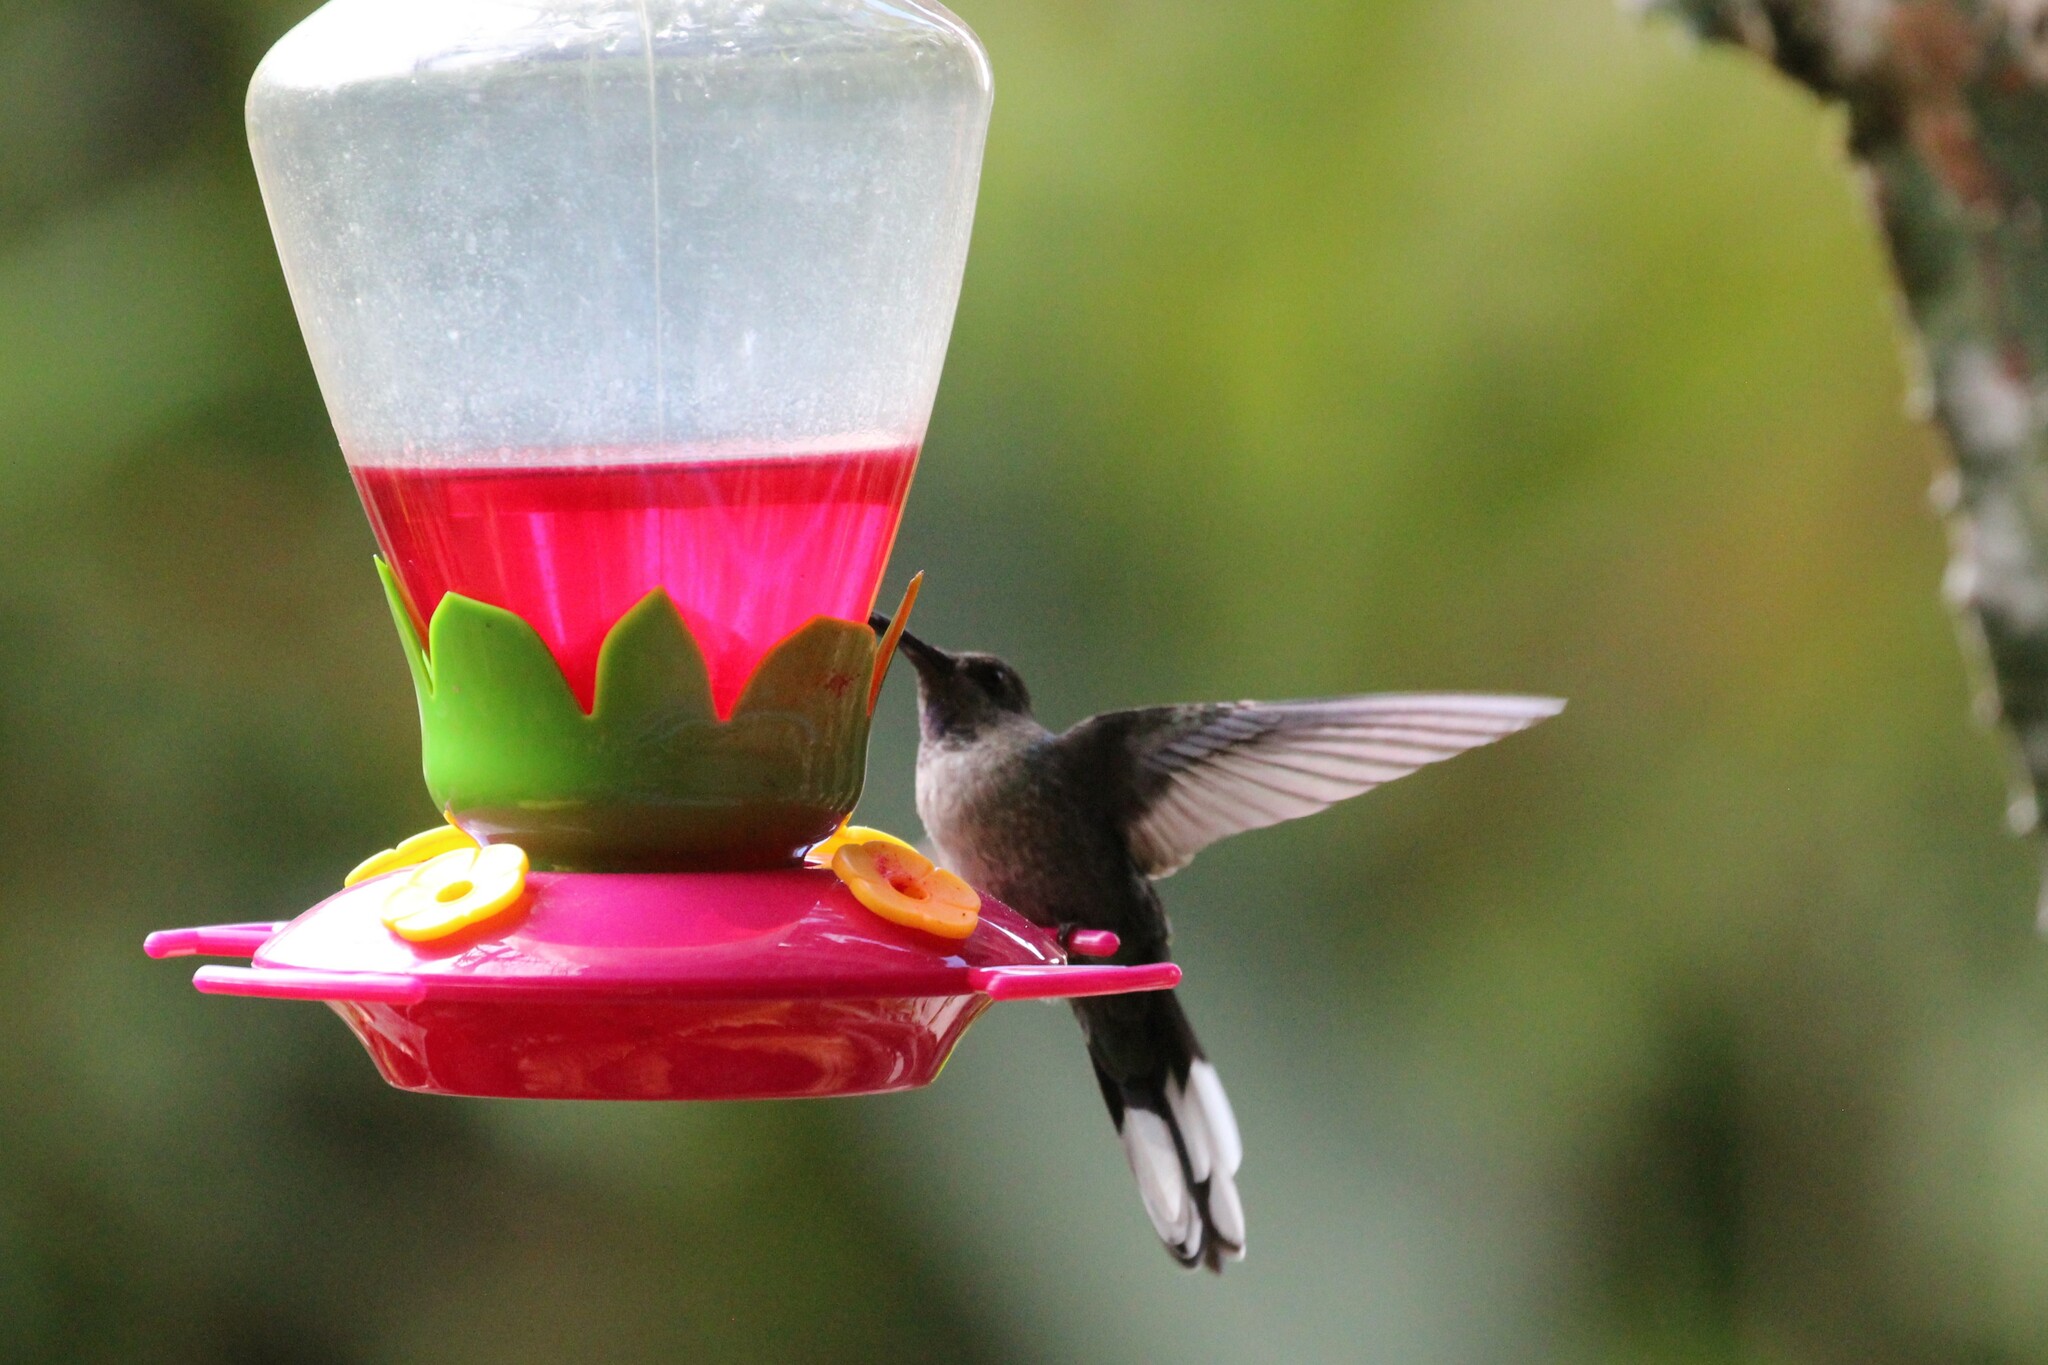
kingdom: Animalia
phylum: Chordata
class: Aves
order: Apodiformes
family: Trochilidae
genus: Campylopterus
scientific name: Campylopterus hemileucurus
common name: Violet sabrewing
